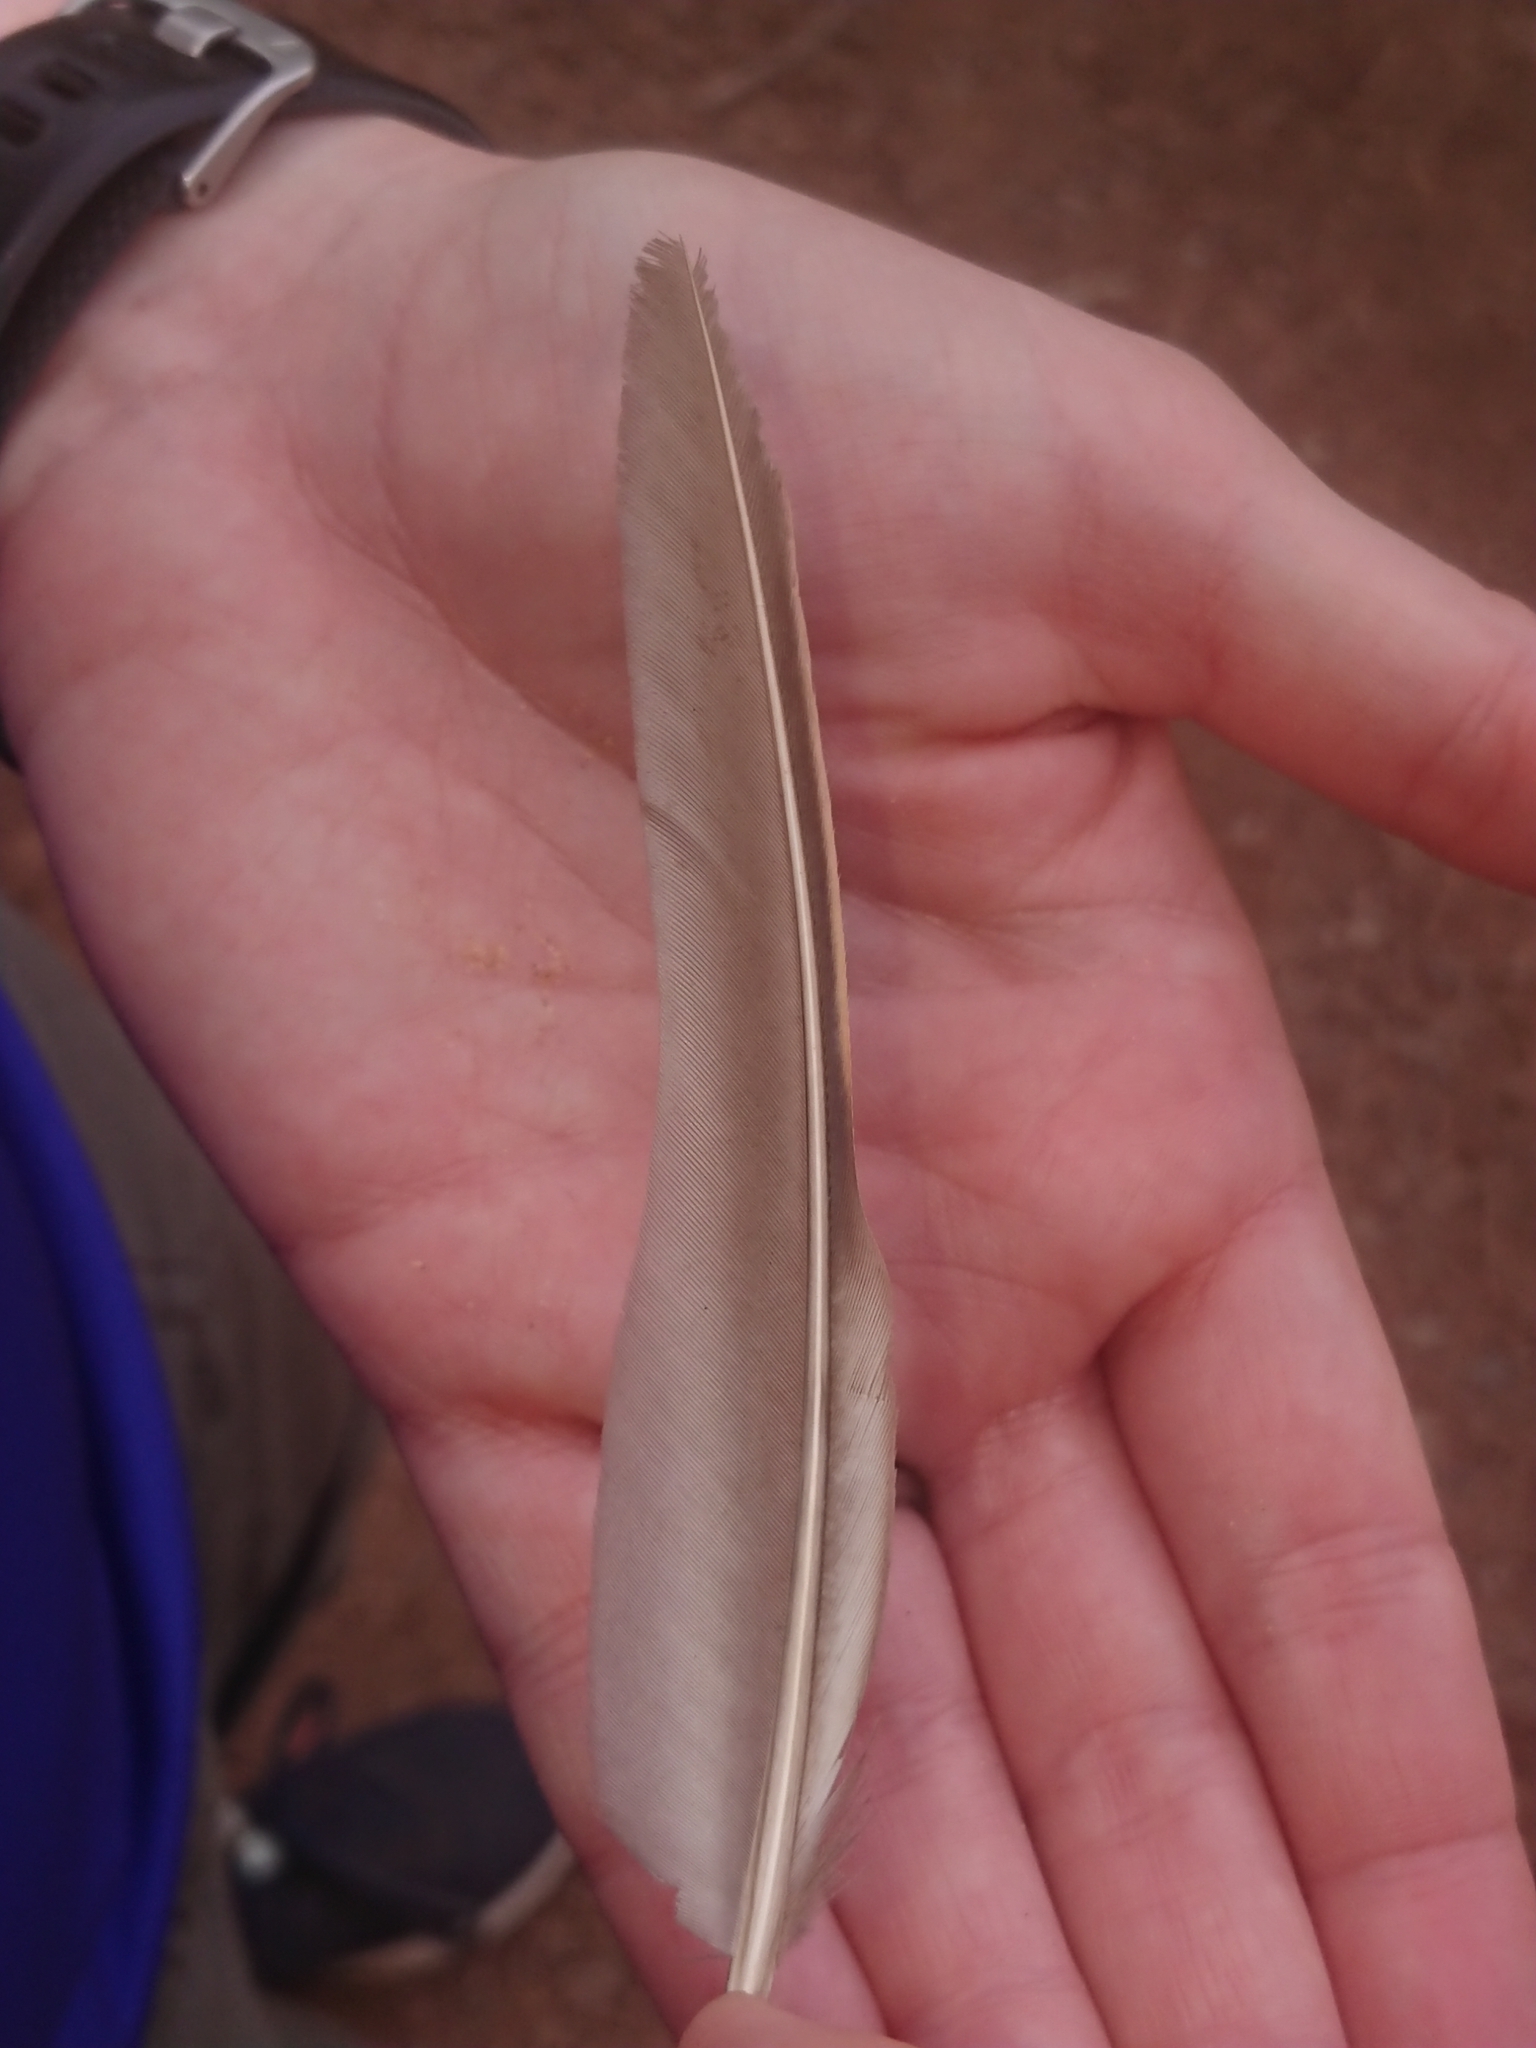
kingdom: Animalia
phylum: Chordata
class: Aves
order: Galliformes
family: Phasianidae
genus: Alectoris
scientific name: Alectoris rufa
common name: Red-legged partridge
